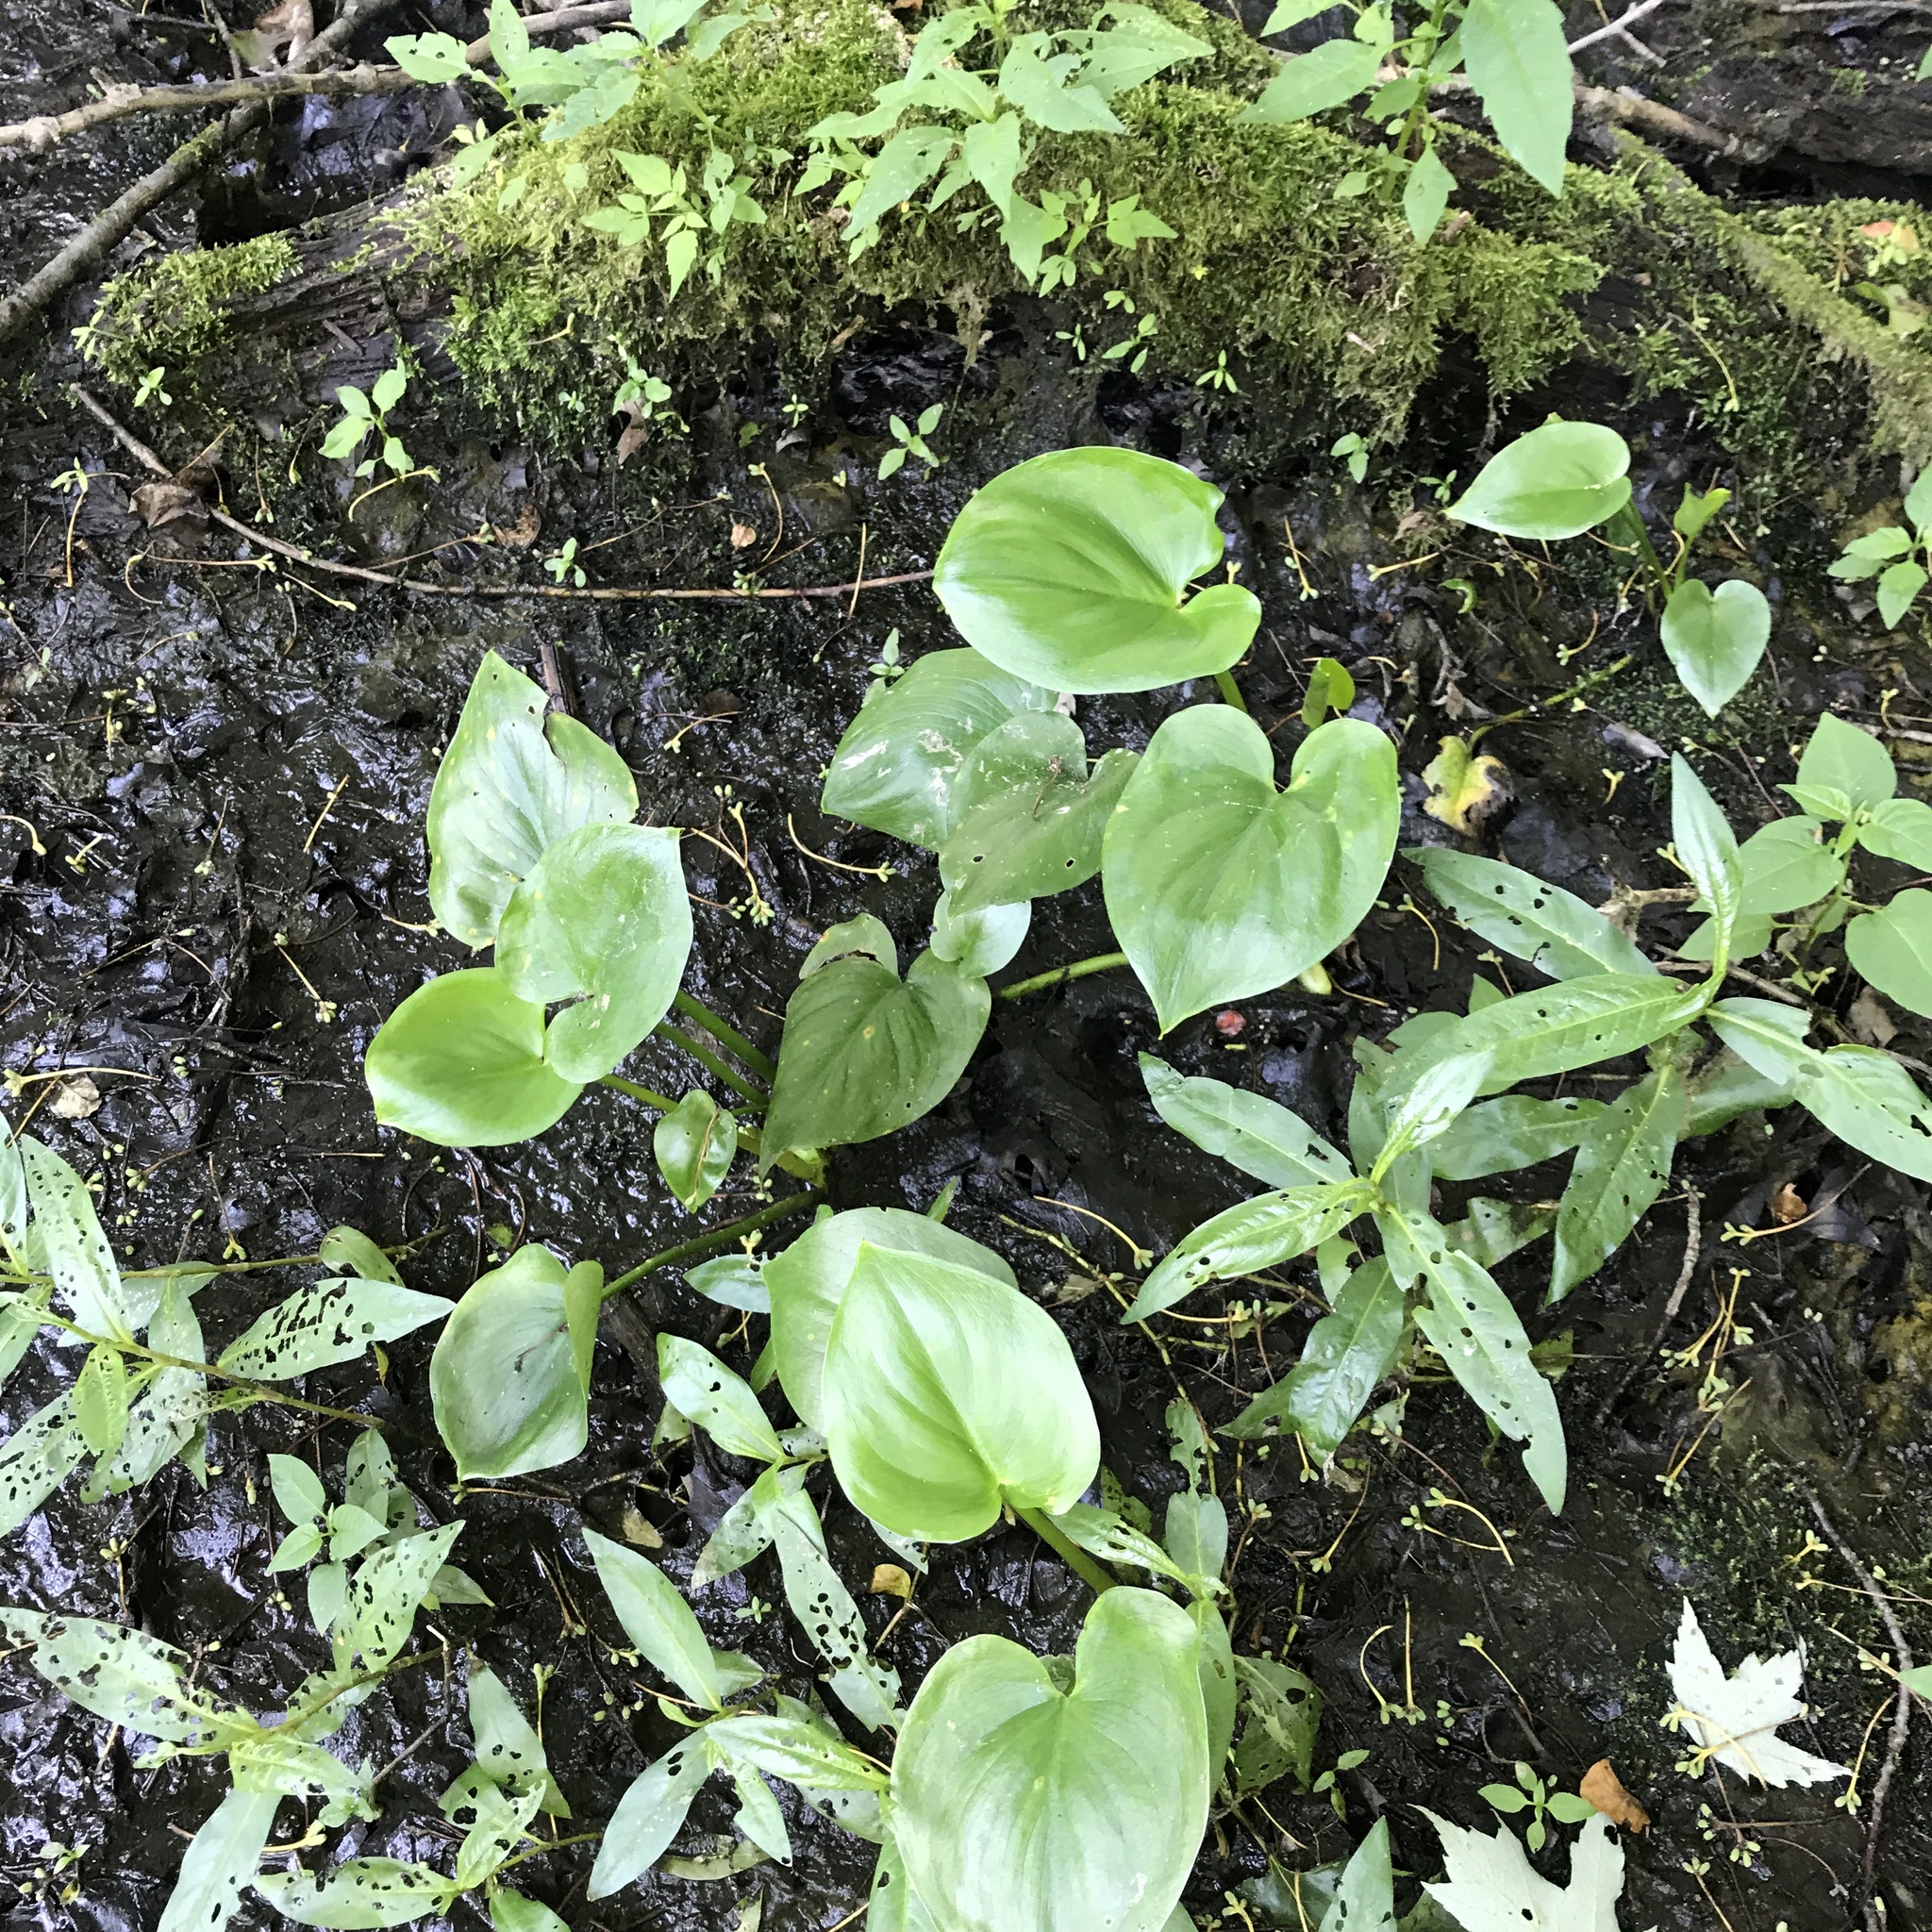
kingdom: Plantae
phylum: Tracheophyta
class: Liliopsida
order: Alismatales
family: Araceae
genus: Calla
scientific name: Calla palustris
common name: Bog arum
